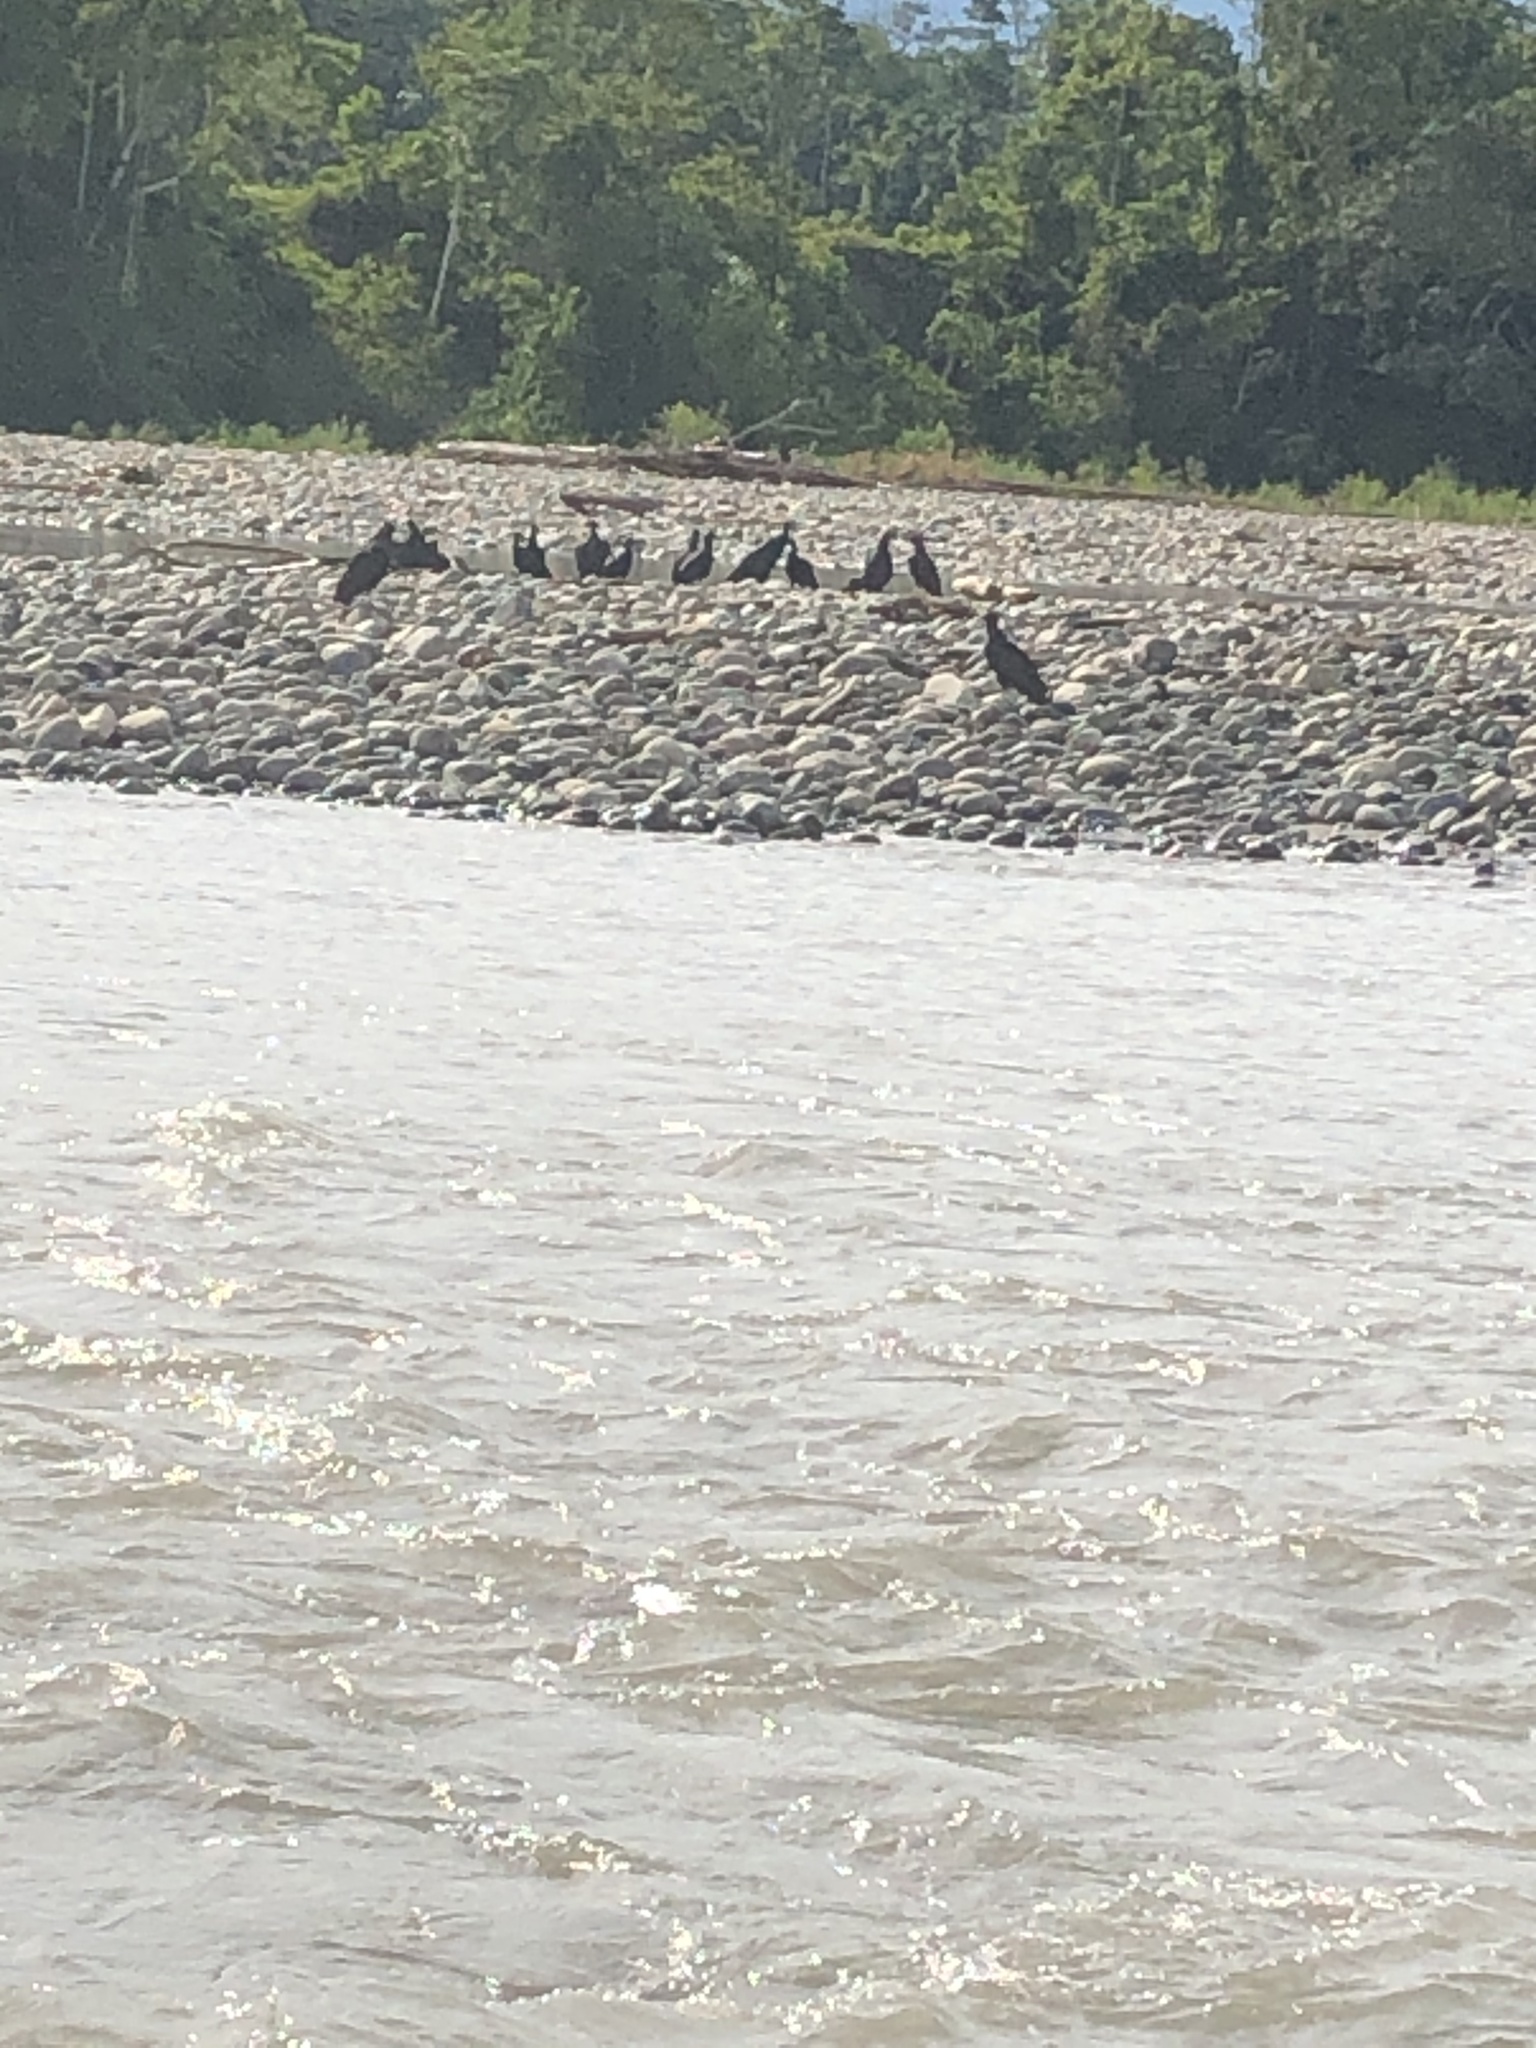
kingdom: Animalia
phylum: Chordata
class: Aves
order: Accipitriformes
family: Cathartidae
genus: Coragyps
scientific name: Coragyps atratus
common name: Black vulture
